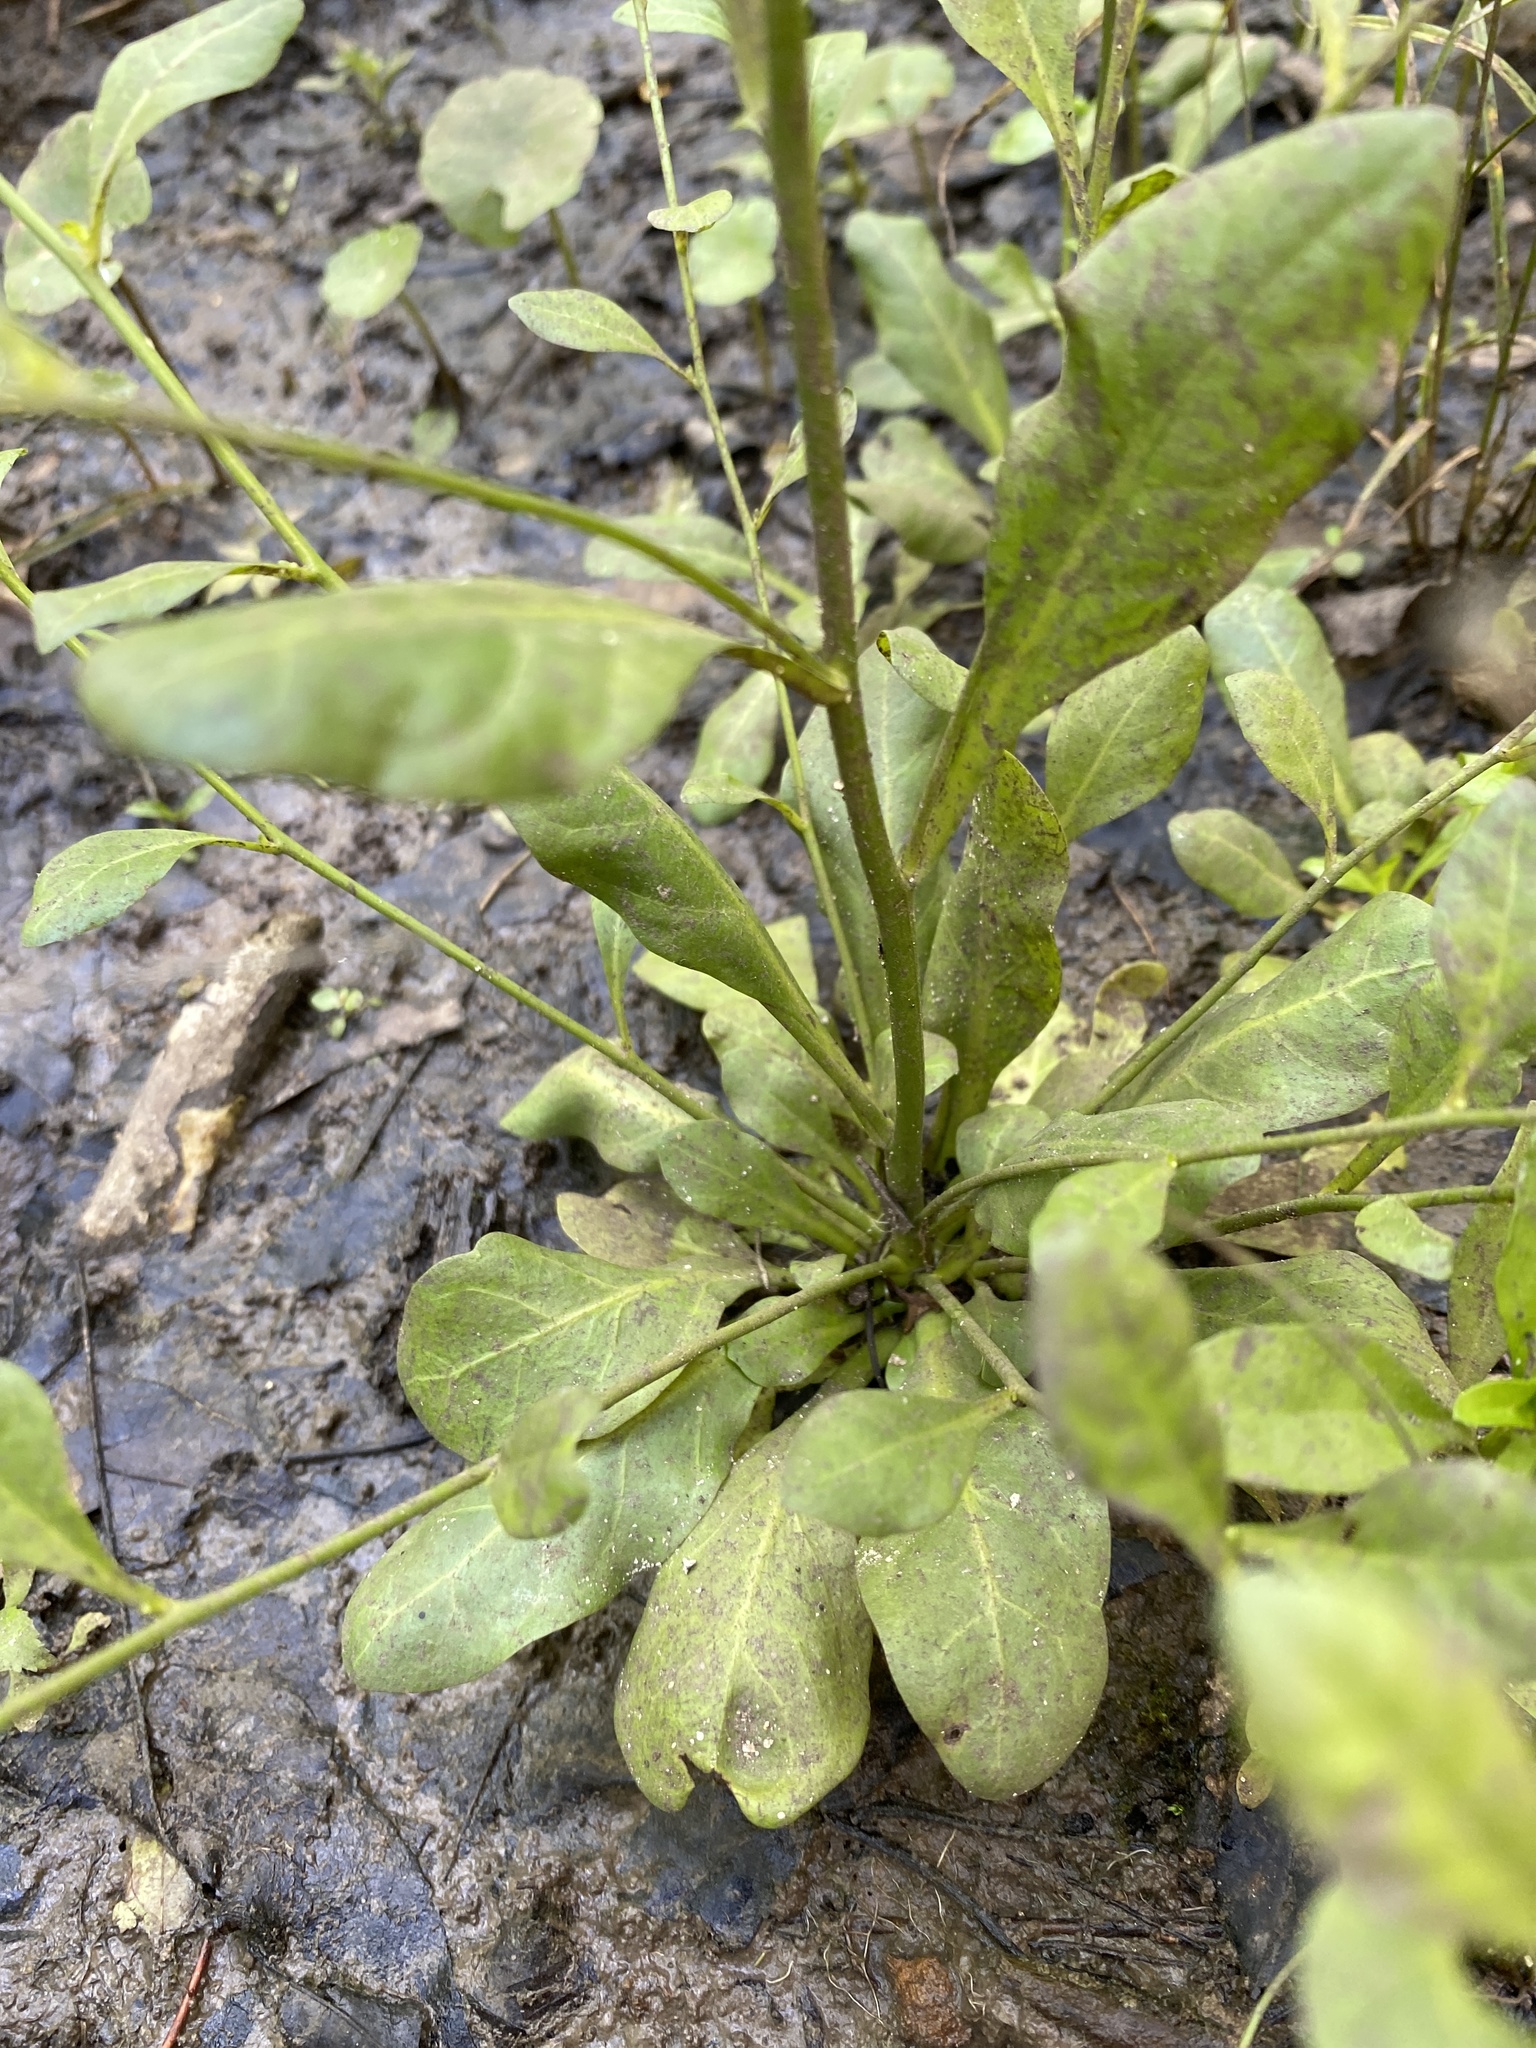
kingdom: Plantae
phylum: Tracheophyta
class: Magnoliopsida
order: Ericales
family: Primulaceae
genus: Samolus
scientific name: Samolus parviflorus
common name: False water pimpernel
